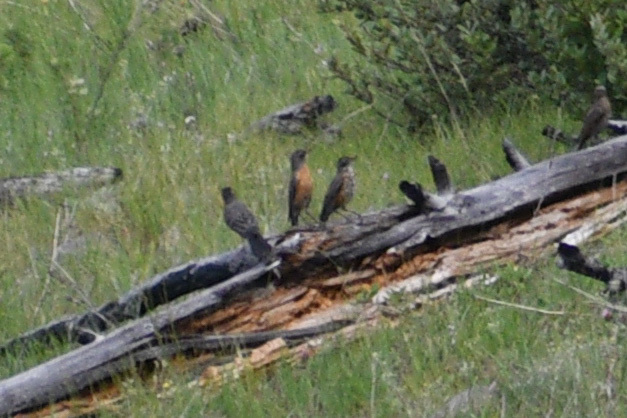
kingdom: Animalia
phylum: Chordata
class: Aves
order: Passeriformes
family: Turdidae
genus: Turdus
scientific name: Turdus migratorius
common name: American robin
